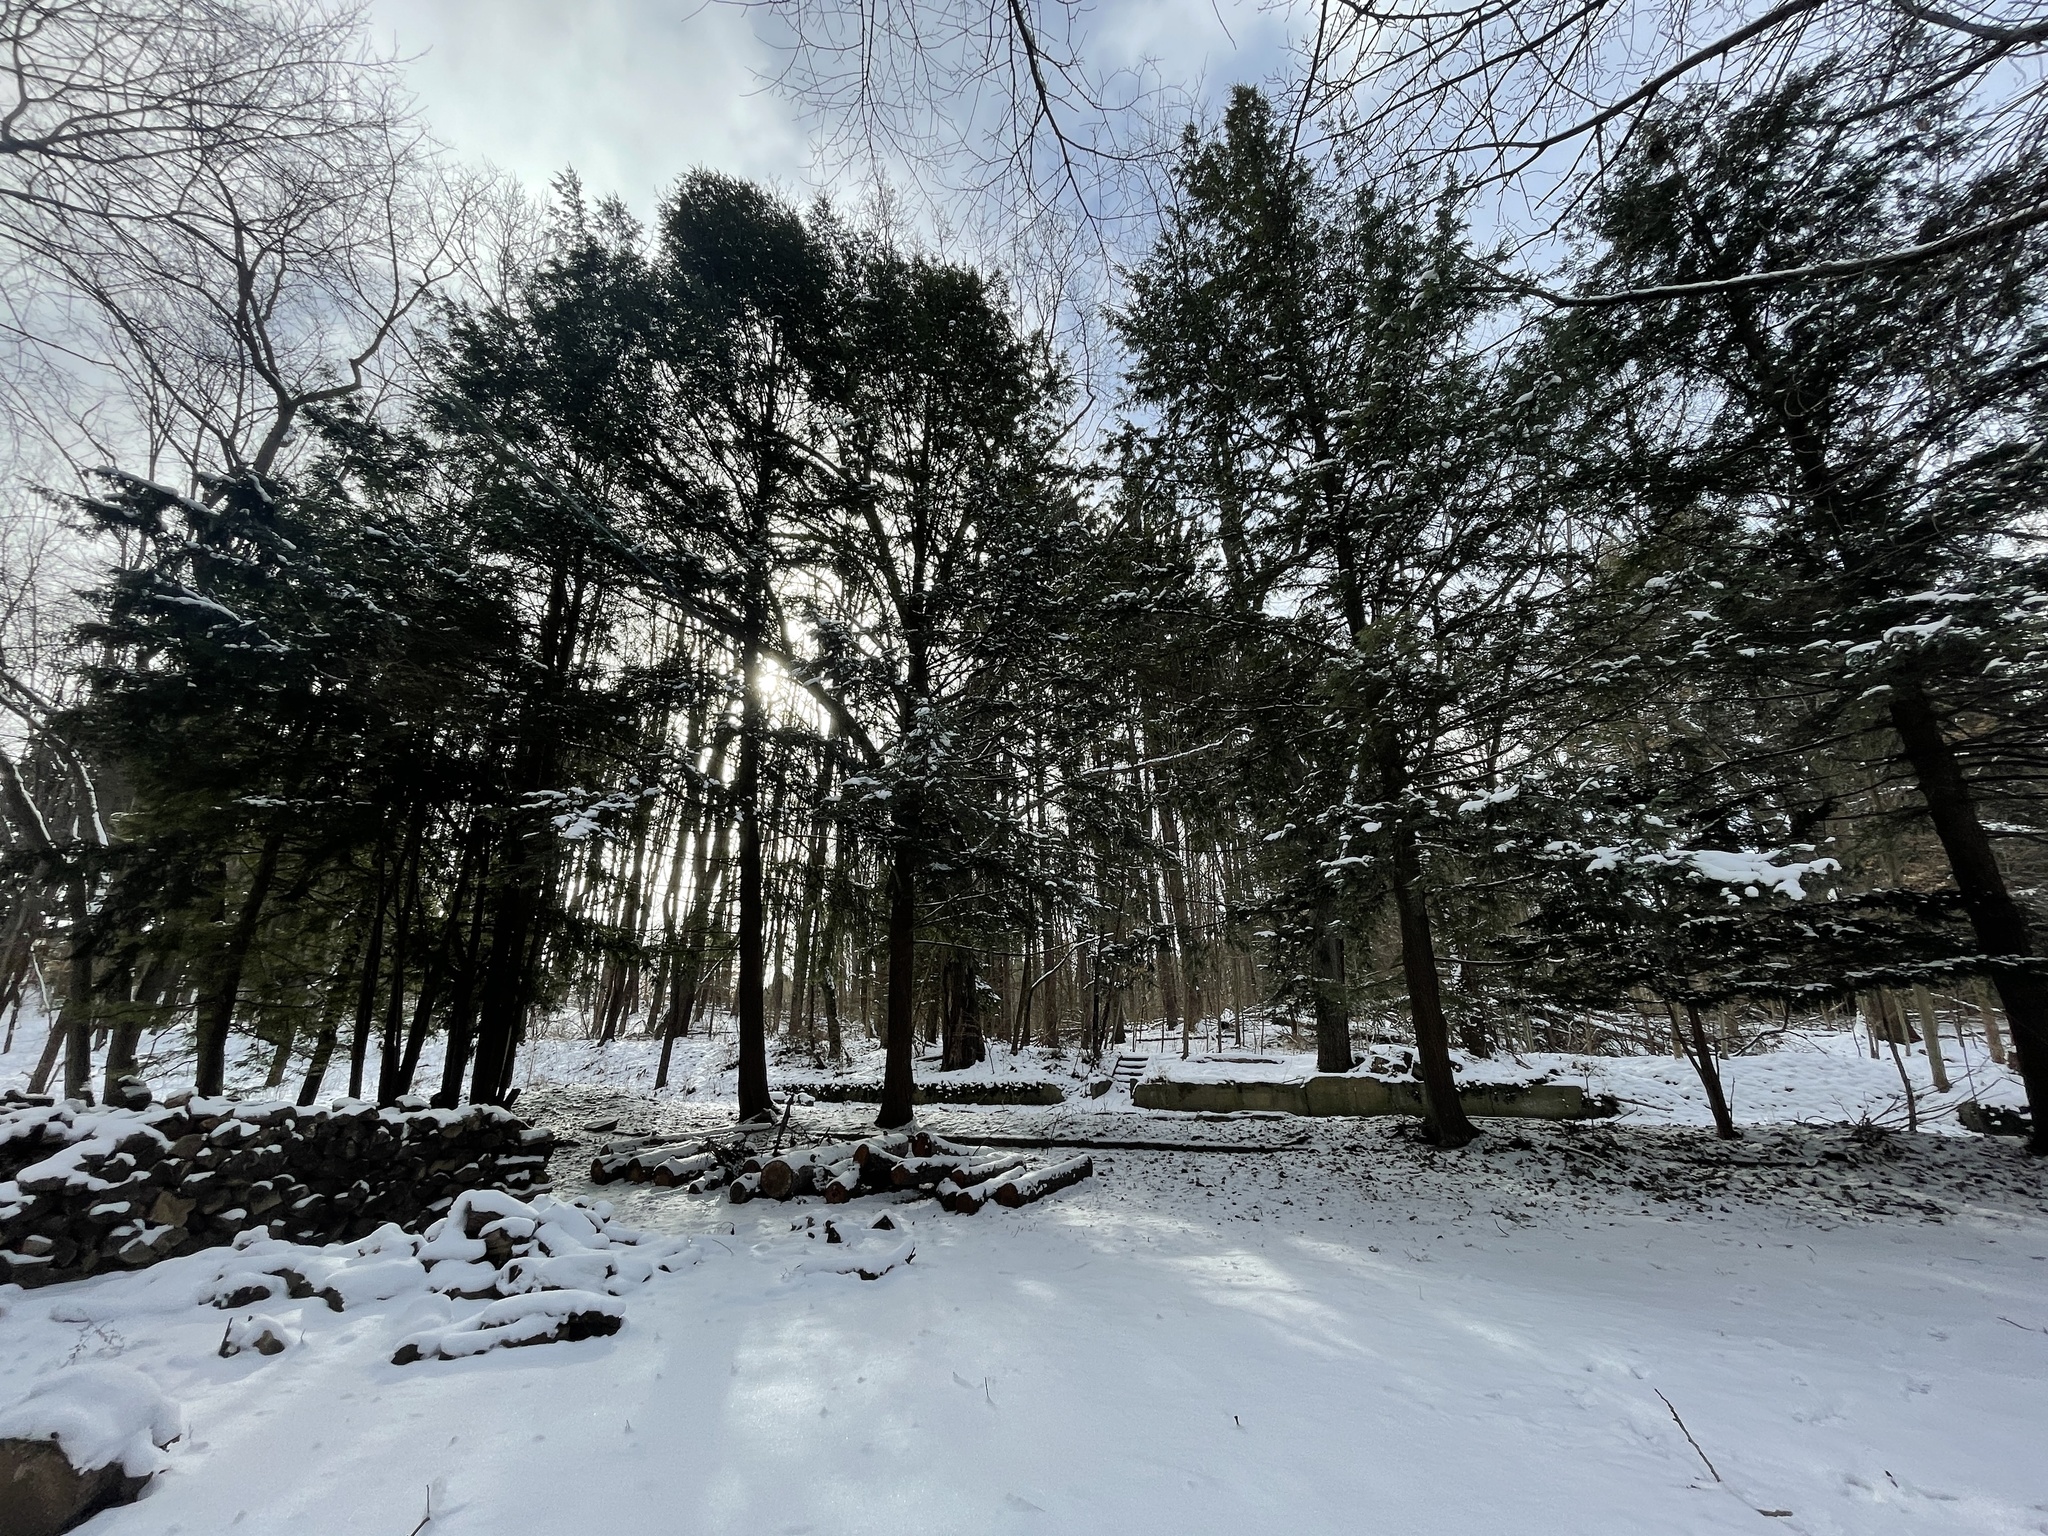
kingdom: Plantae
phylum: Tracheophyta
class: Pinopsida
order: Pinales
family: Pinaceae
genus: Tsuga
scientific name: Tsuga canadensis
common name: Eastern hemlock
